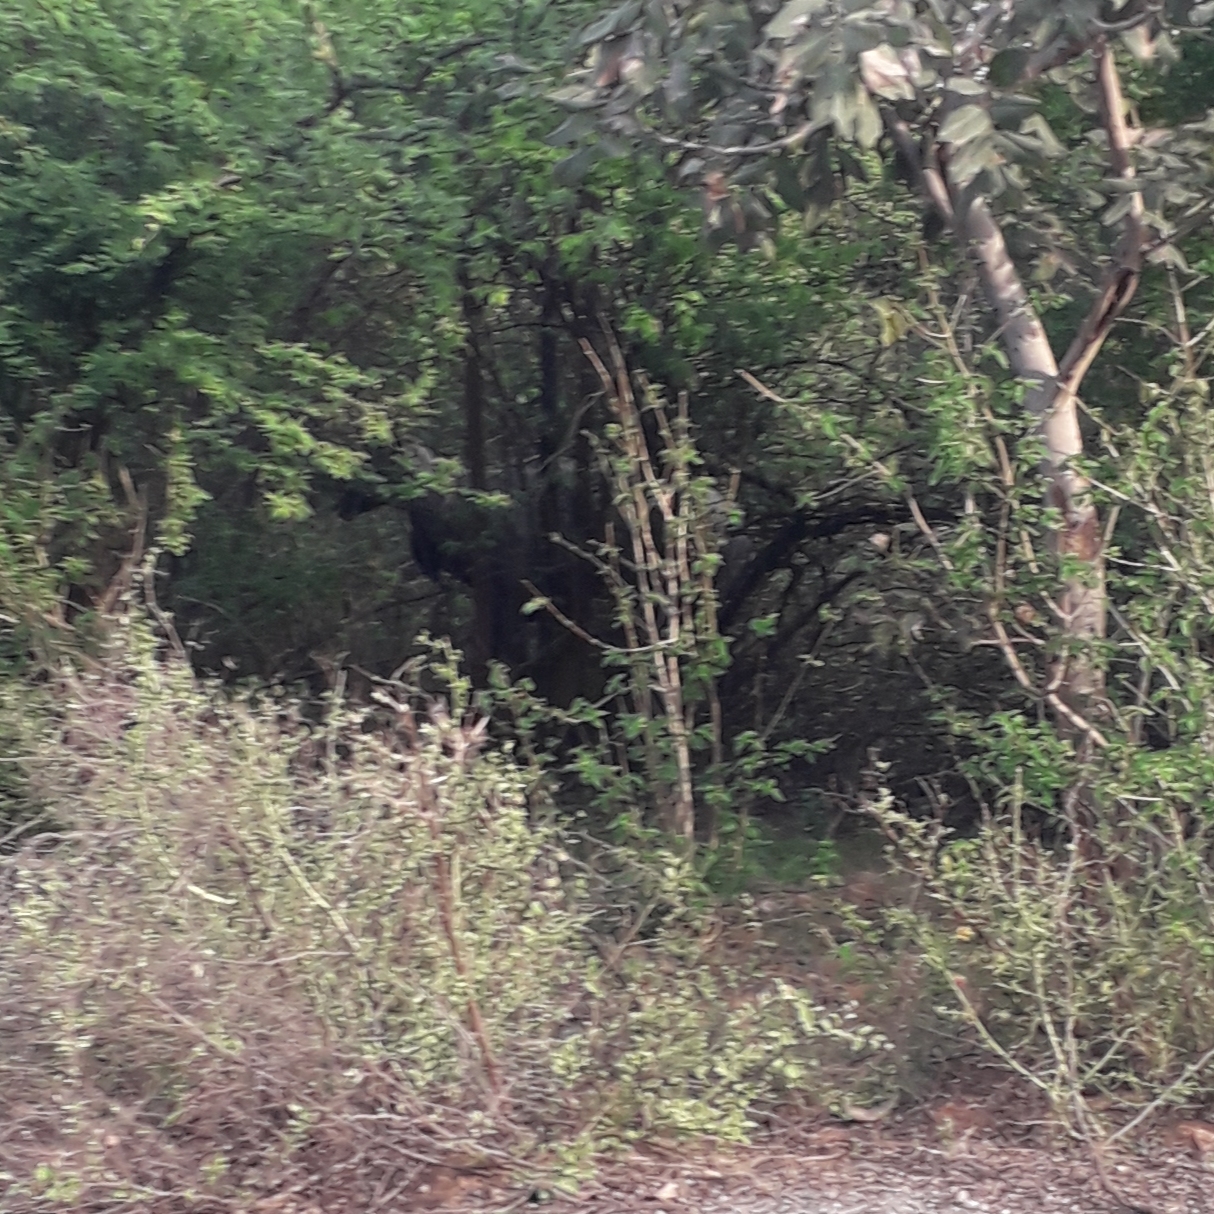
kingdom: Animalia
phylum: Chordata
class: Mammalia
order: Artiodactyla
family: Bovidae
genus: Boselaphus
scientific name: Boselaphus tragocamelus
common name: Nilgai
